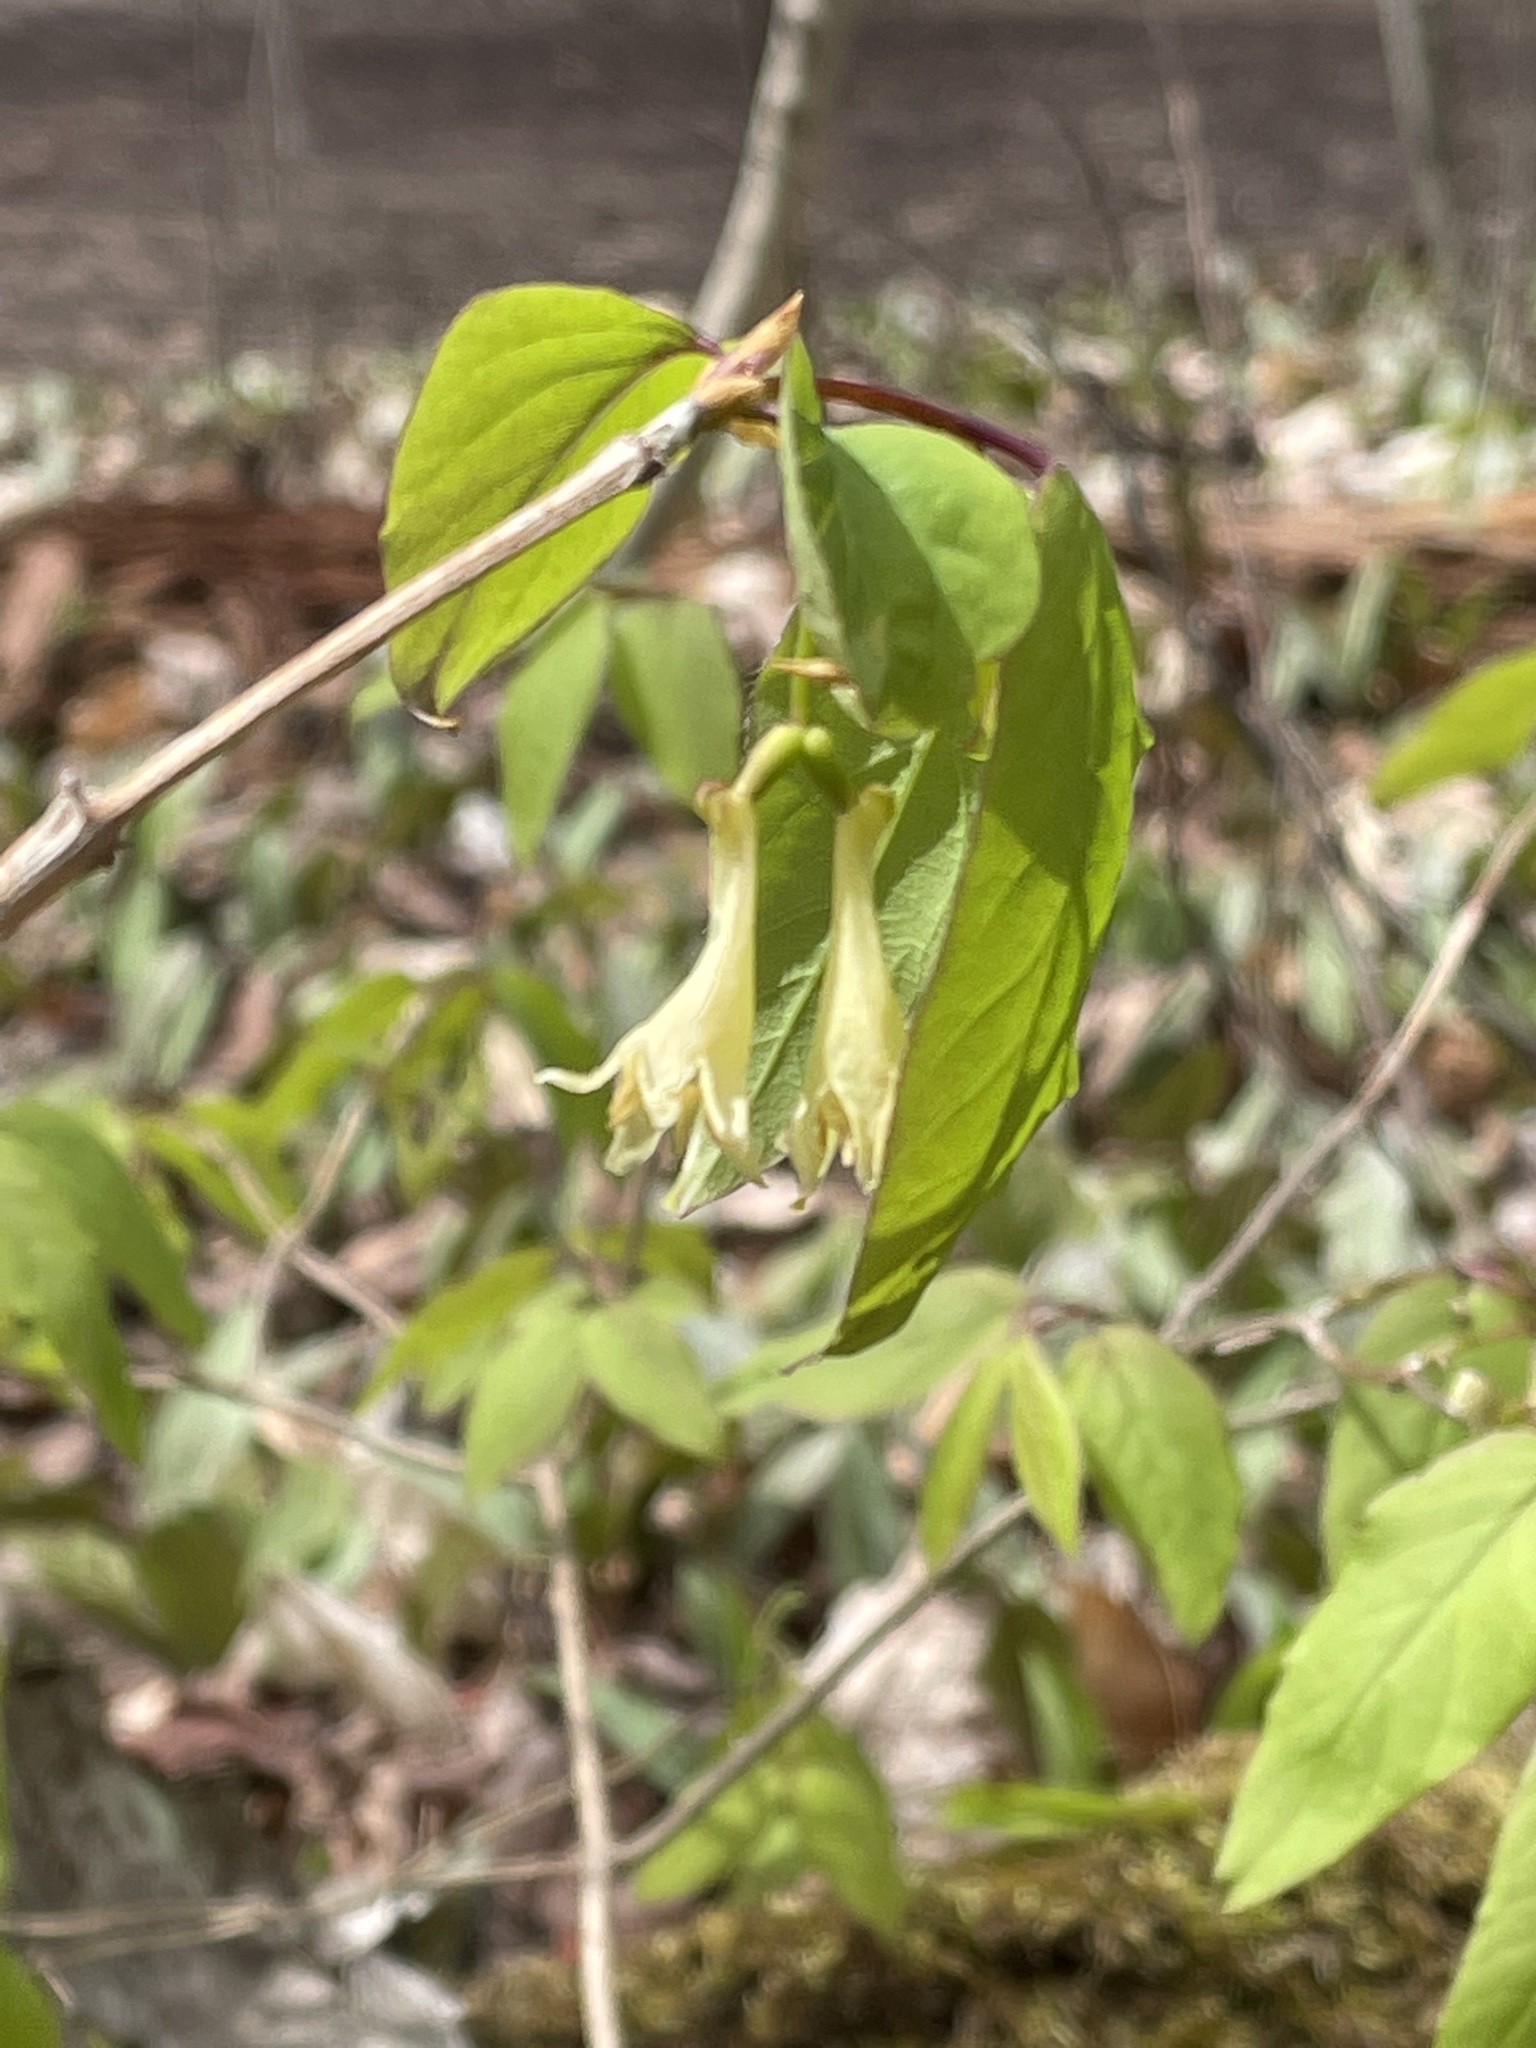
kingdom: Plantae
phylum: Tracheophyta
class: Magnoliopsida
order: Dipsacales
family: Caprifoliaceae
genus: Lonicera
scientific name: Lonicera canadensis
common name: American fly-honeysuckle
